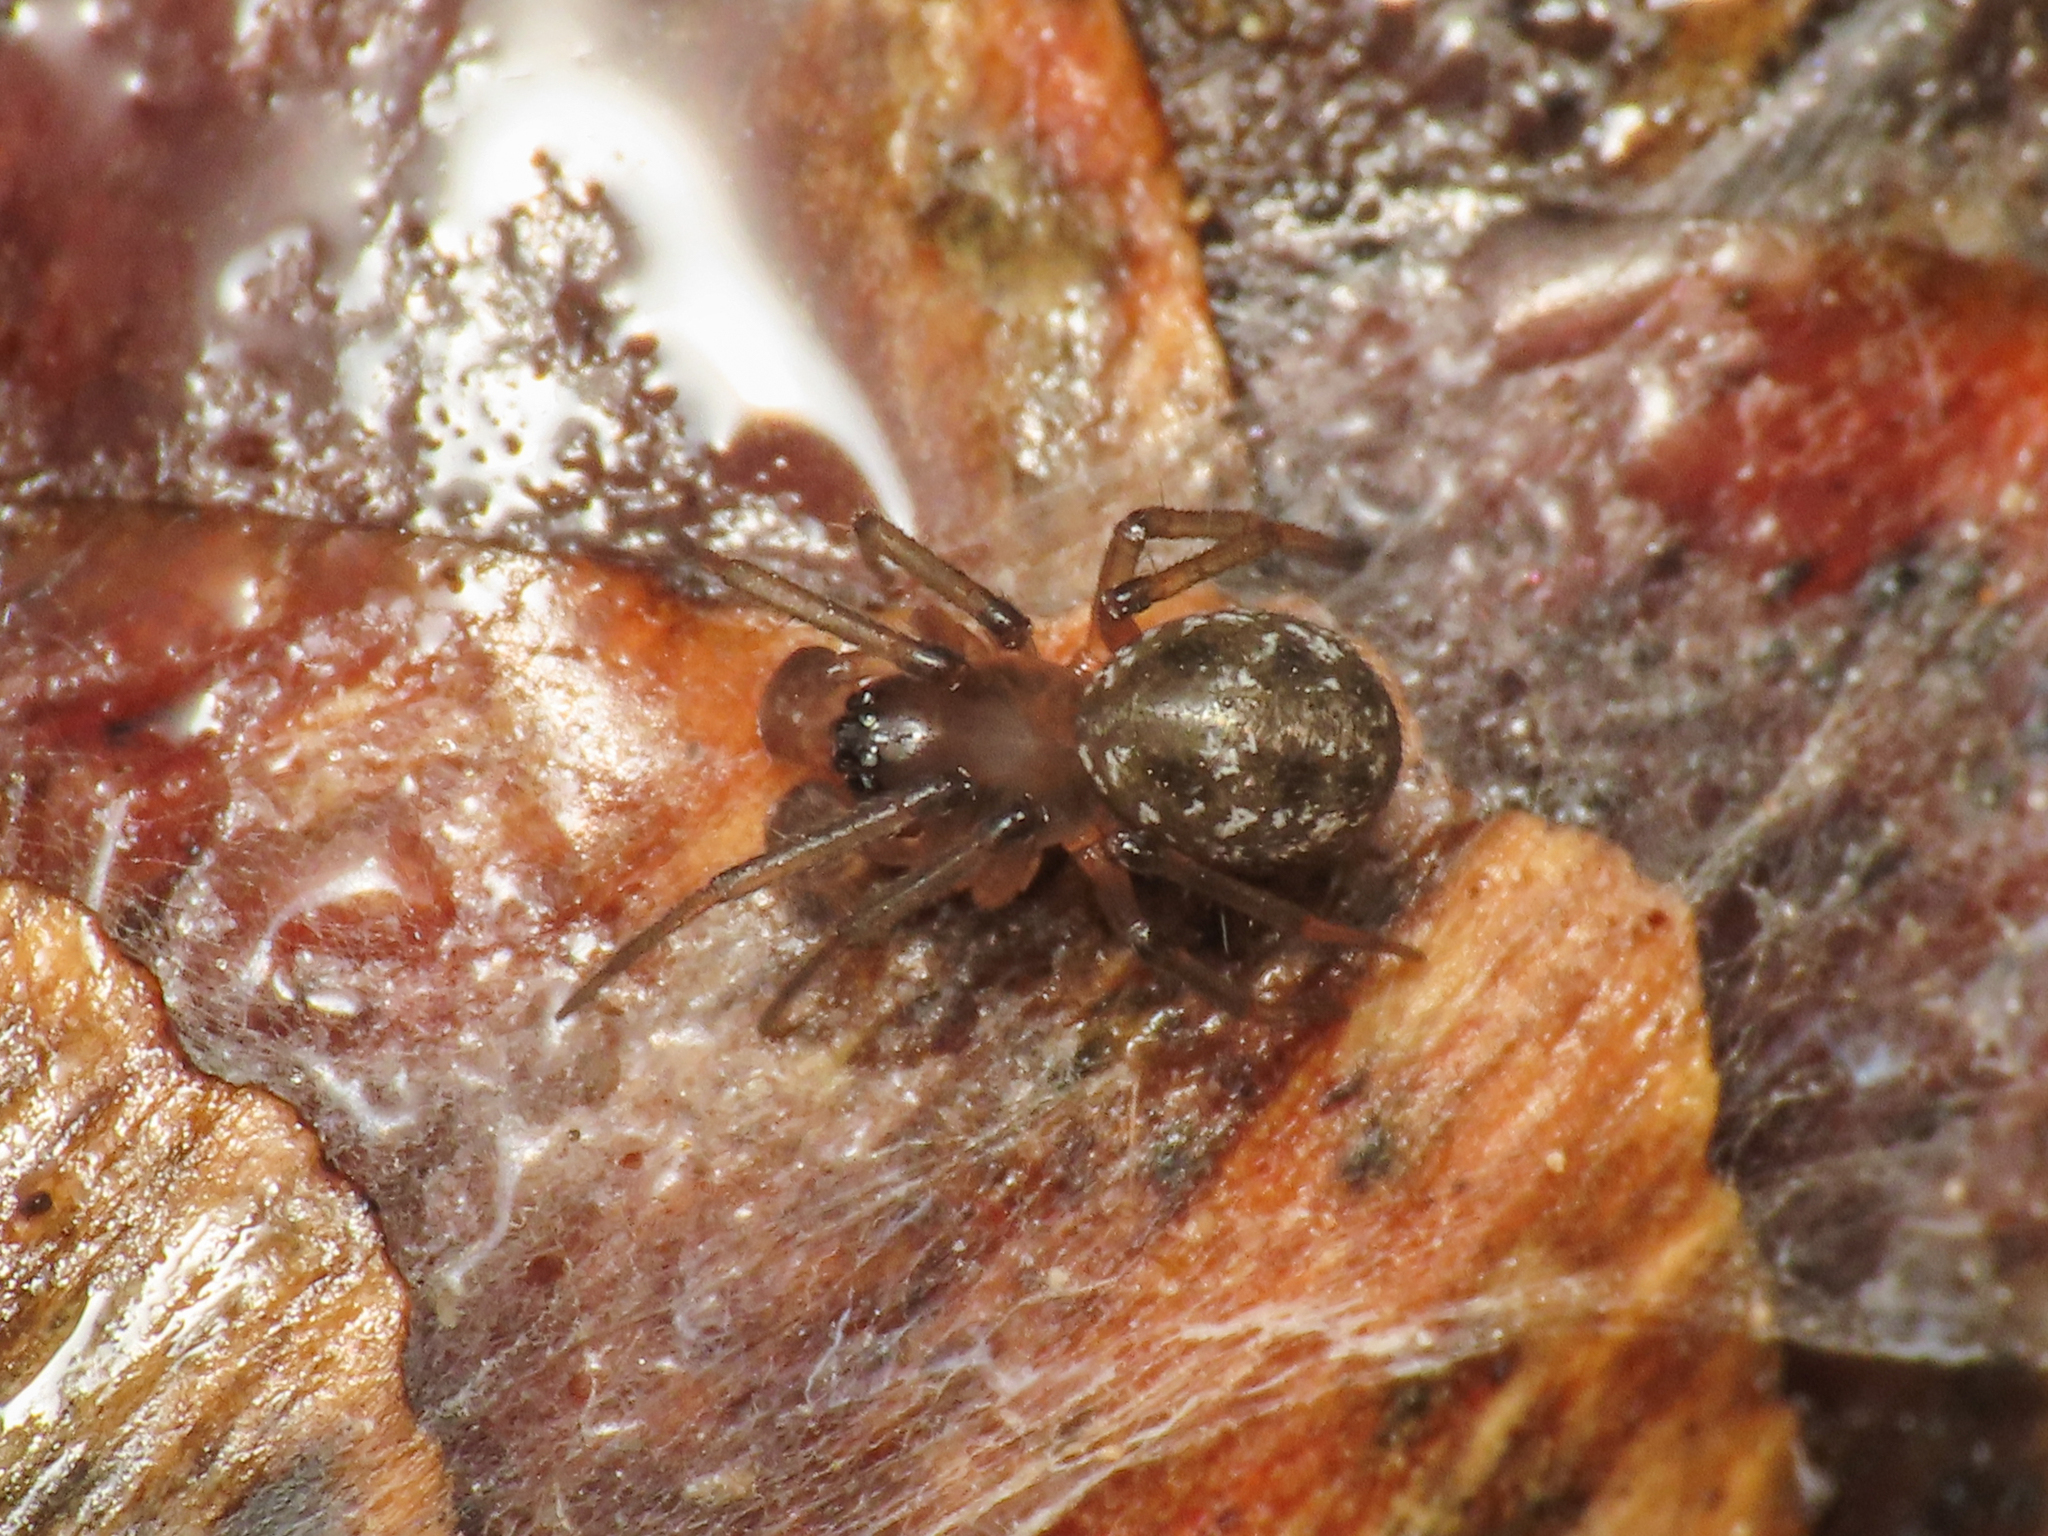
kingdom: Animalia
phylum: Arthropoda
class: Arachnida
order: Araneae
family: Linyphiidae
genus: Tapinopa
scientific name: Tapinopa longidens
